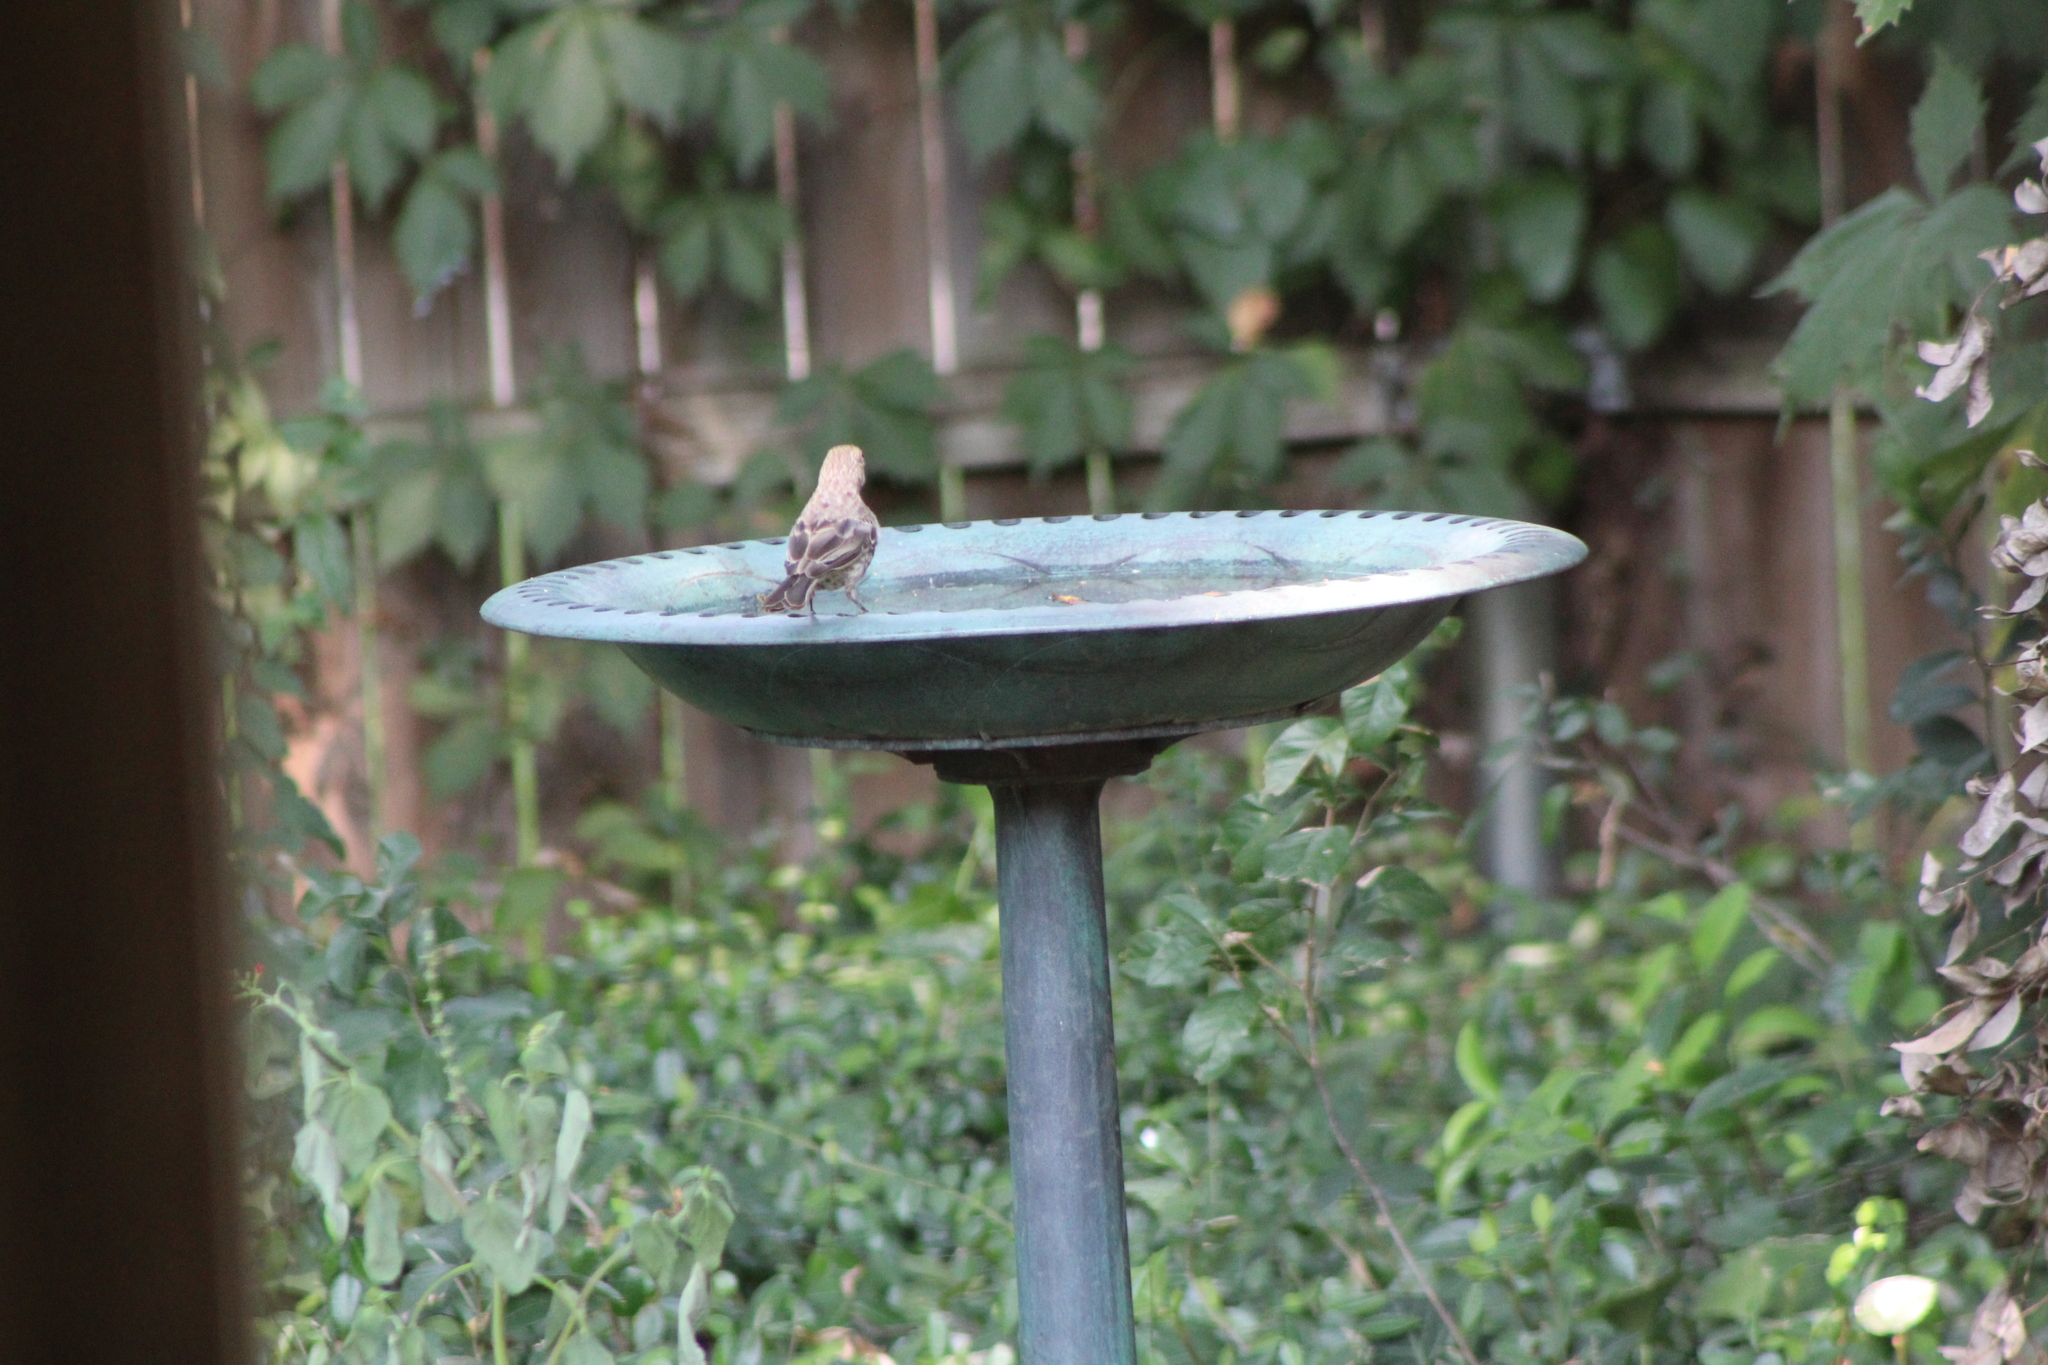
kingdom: Animalia
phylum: Chordata
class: Aves
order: Passeriformes
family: Fringillidae
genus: Haemorhous
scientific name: Haemorhous mexicanus
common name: House finch
